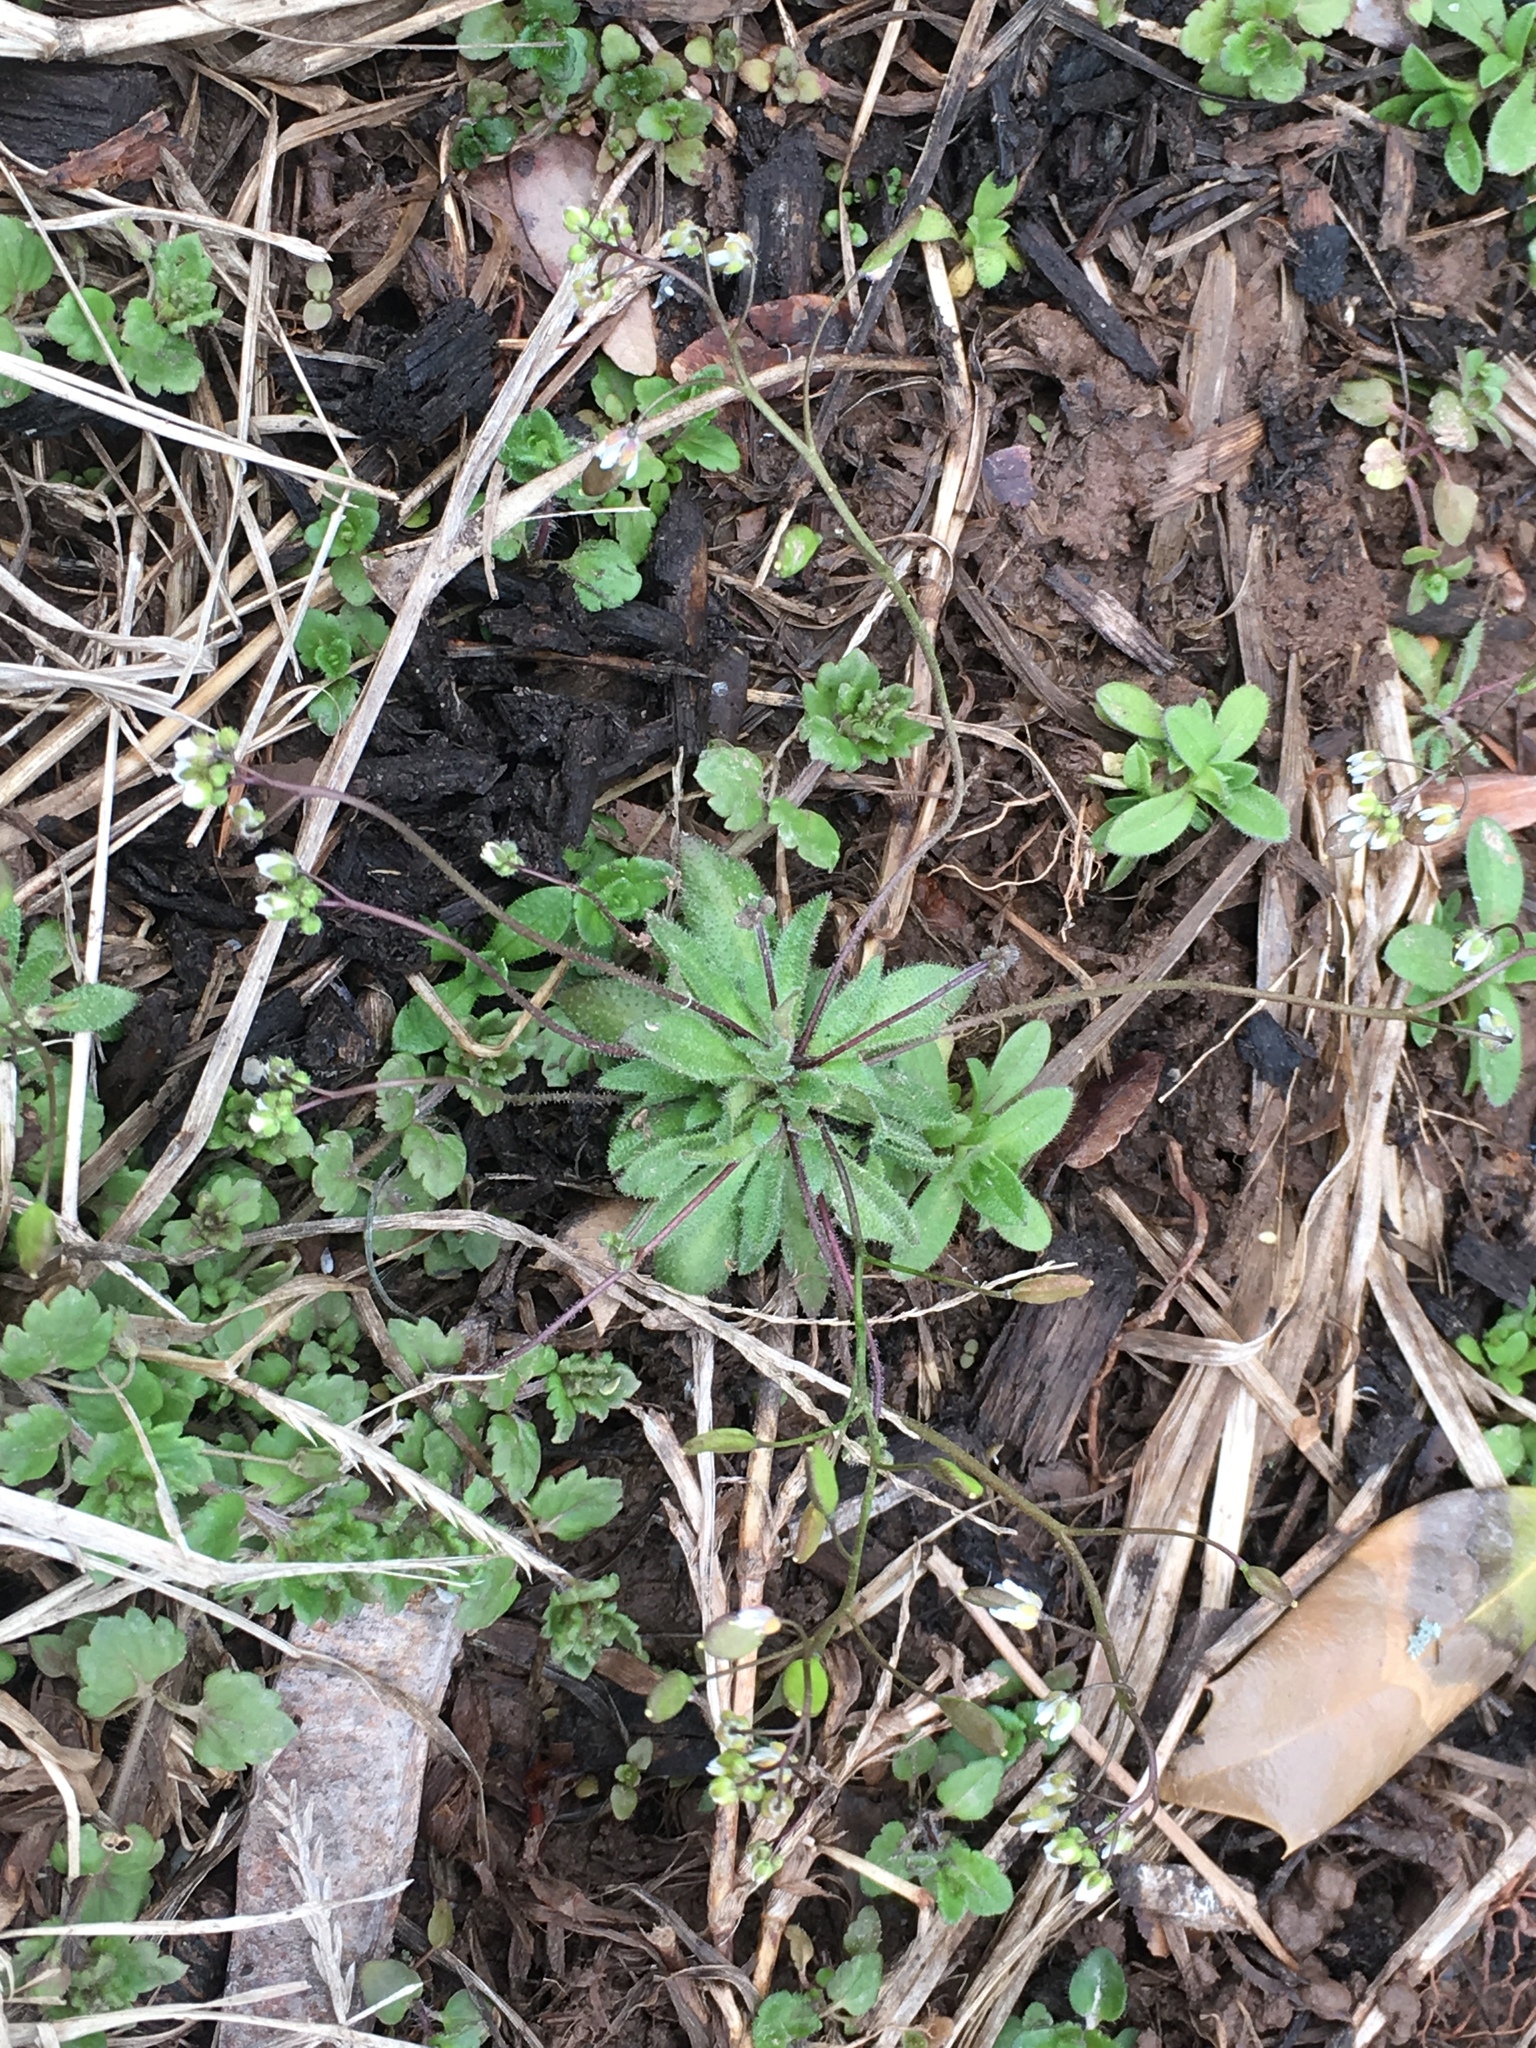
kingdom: Plantae
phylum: Tracheophyta
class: Magnoliopsida
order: Brassicales
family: Brassicaceae
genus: Draba
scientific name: Draba verna
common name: Spring draba
